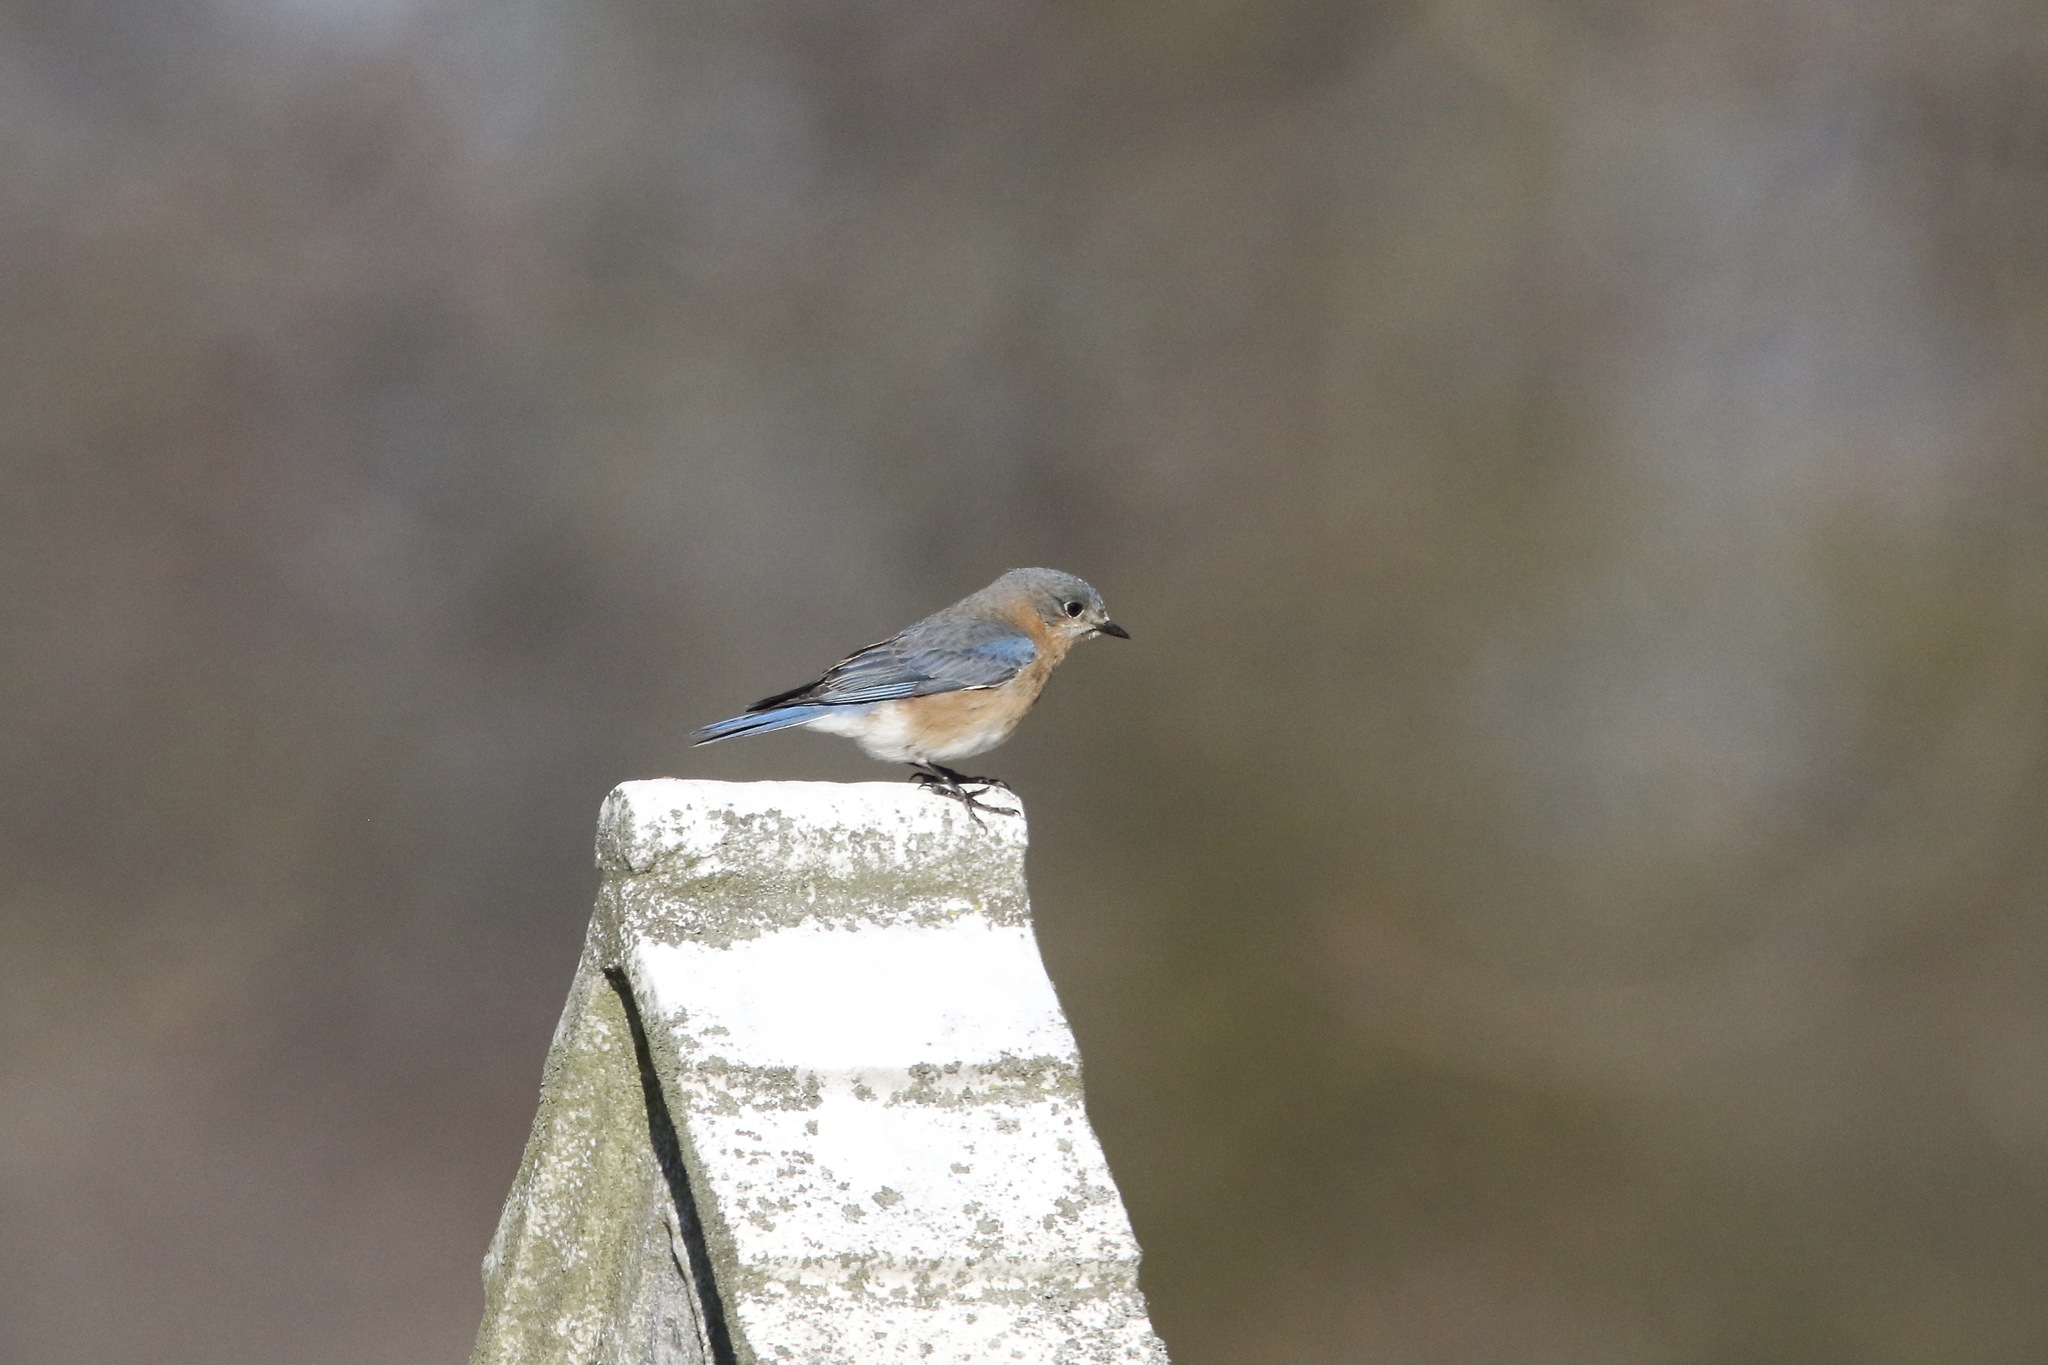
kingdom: Animalia
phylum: Chordata
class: Aves
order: Passeriformes
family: Turdidae
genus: Sialia
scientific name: Sialia sialis
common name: Eastern bluebird
